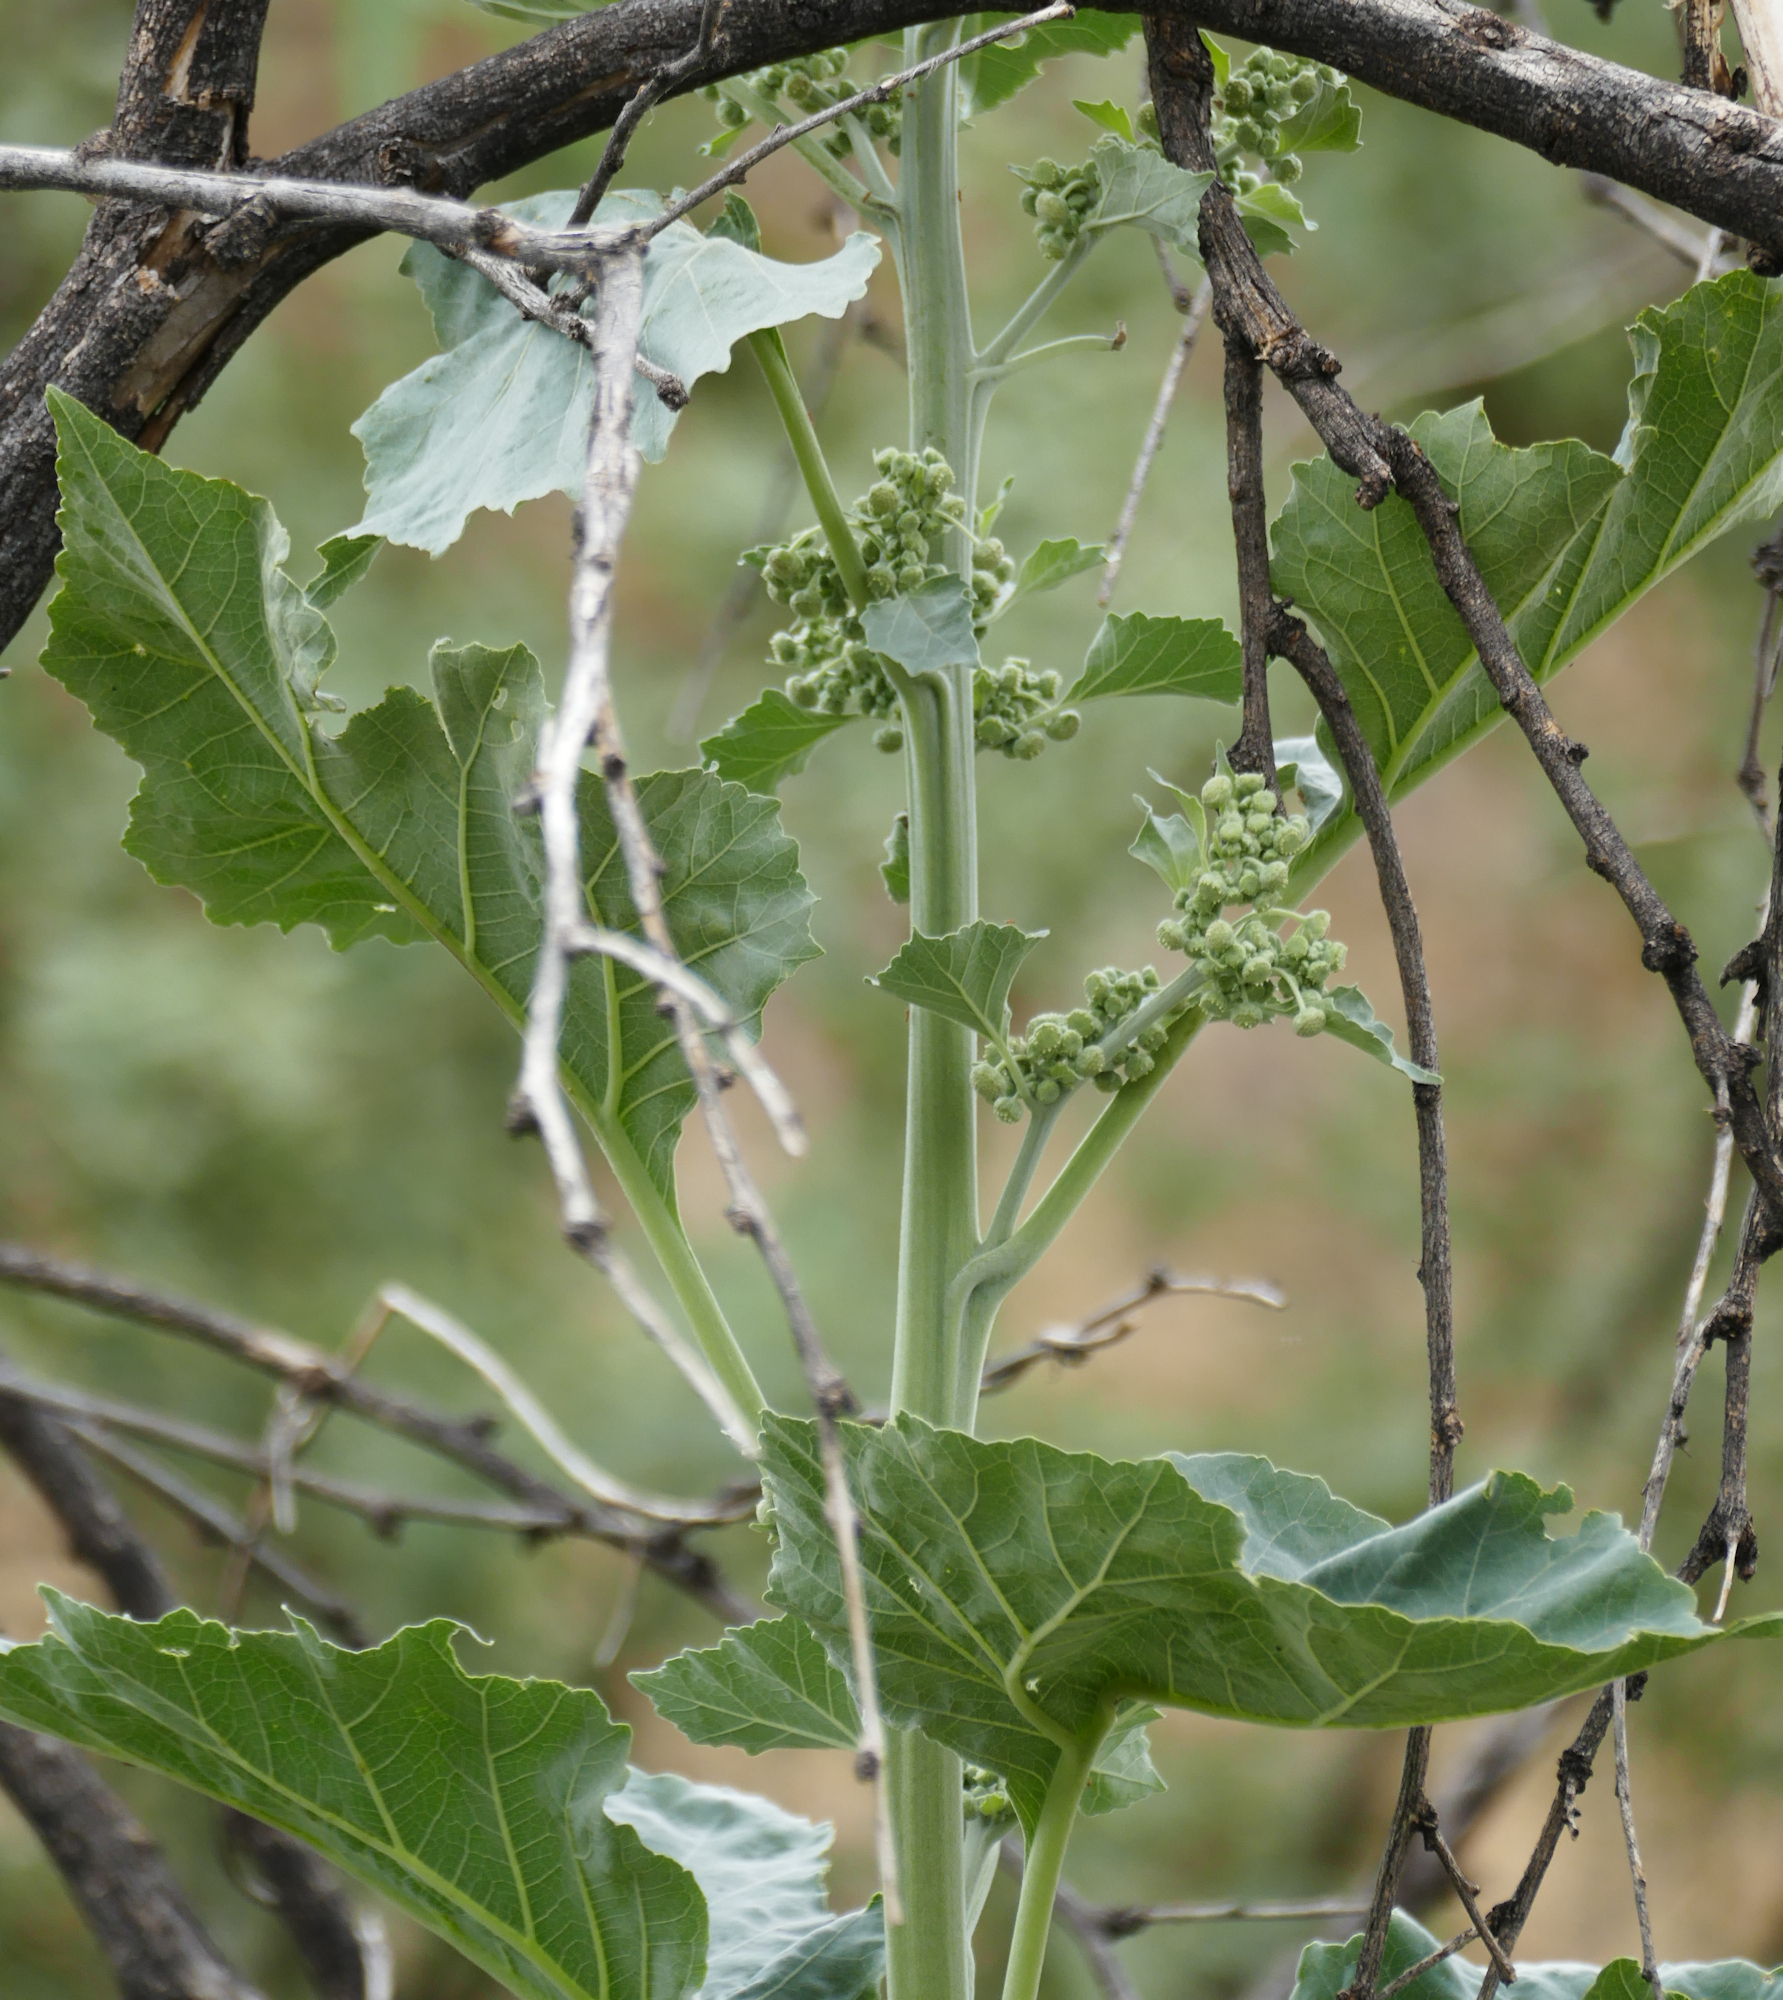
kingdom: Plantae
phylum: Tracheophyta
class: Magnoliopsida
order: Asterales
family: Asteraceae
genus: Parthenice
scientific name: Parthenice mollis
